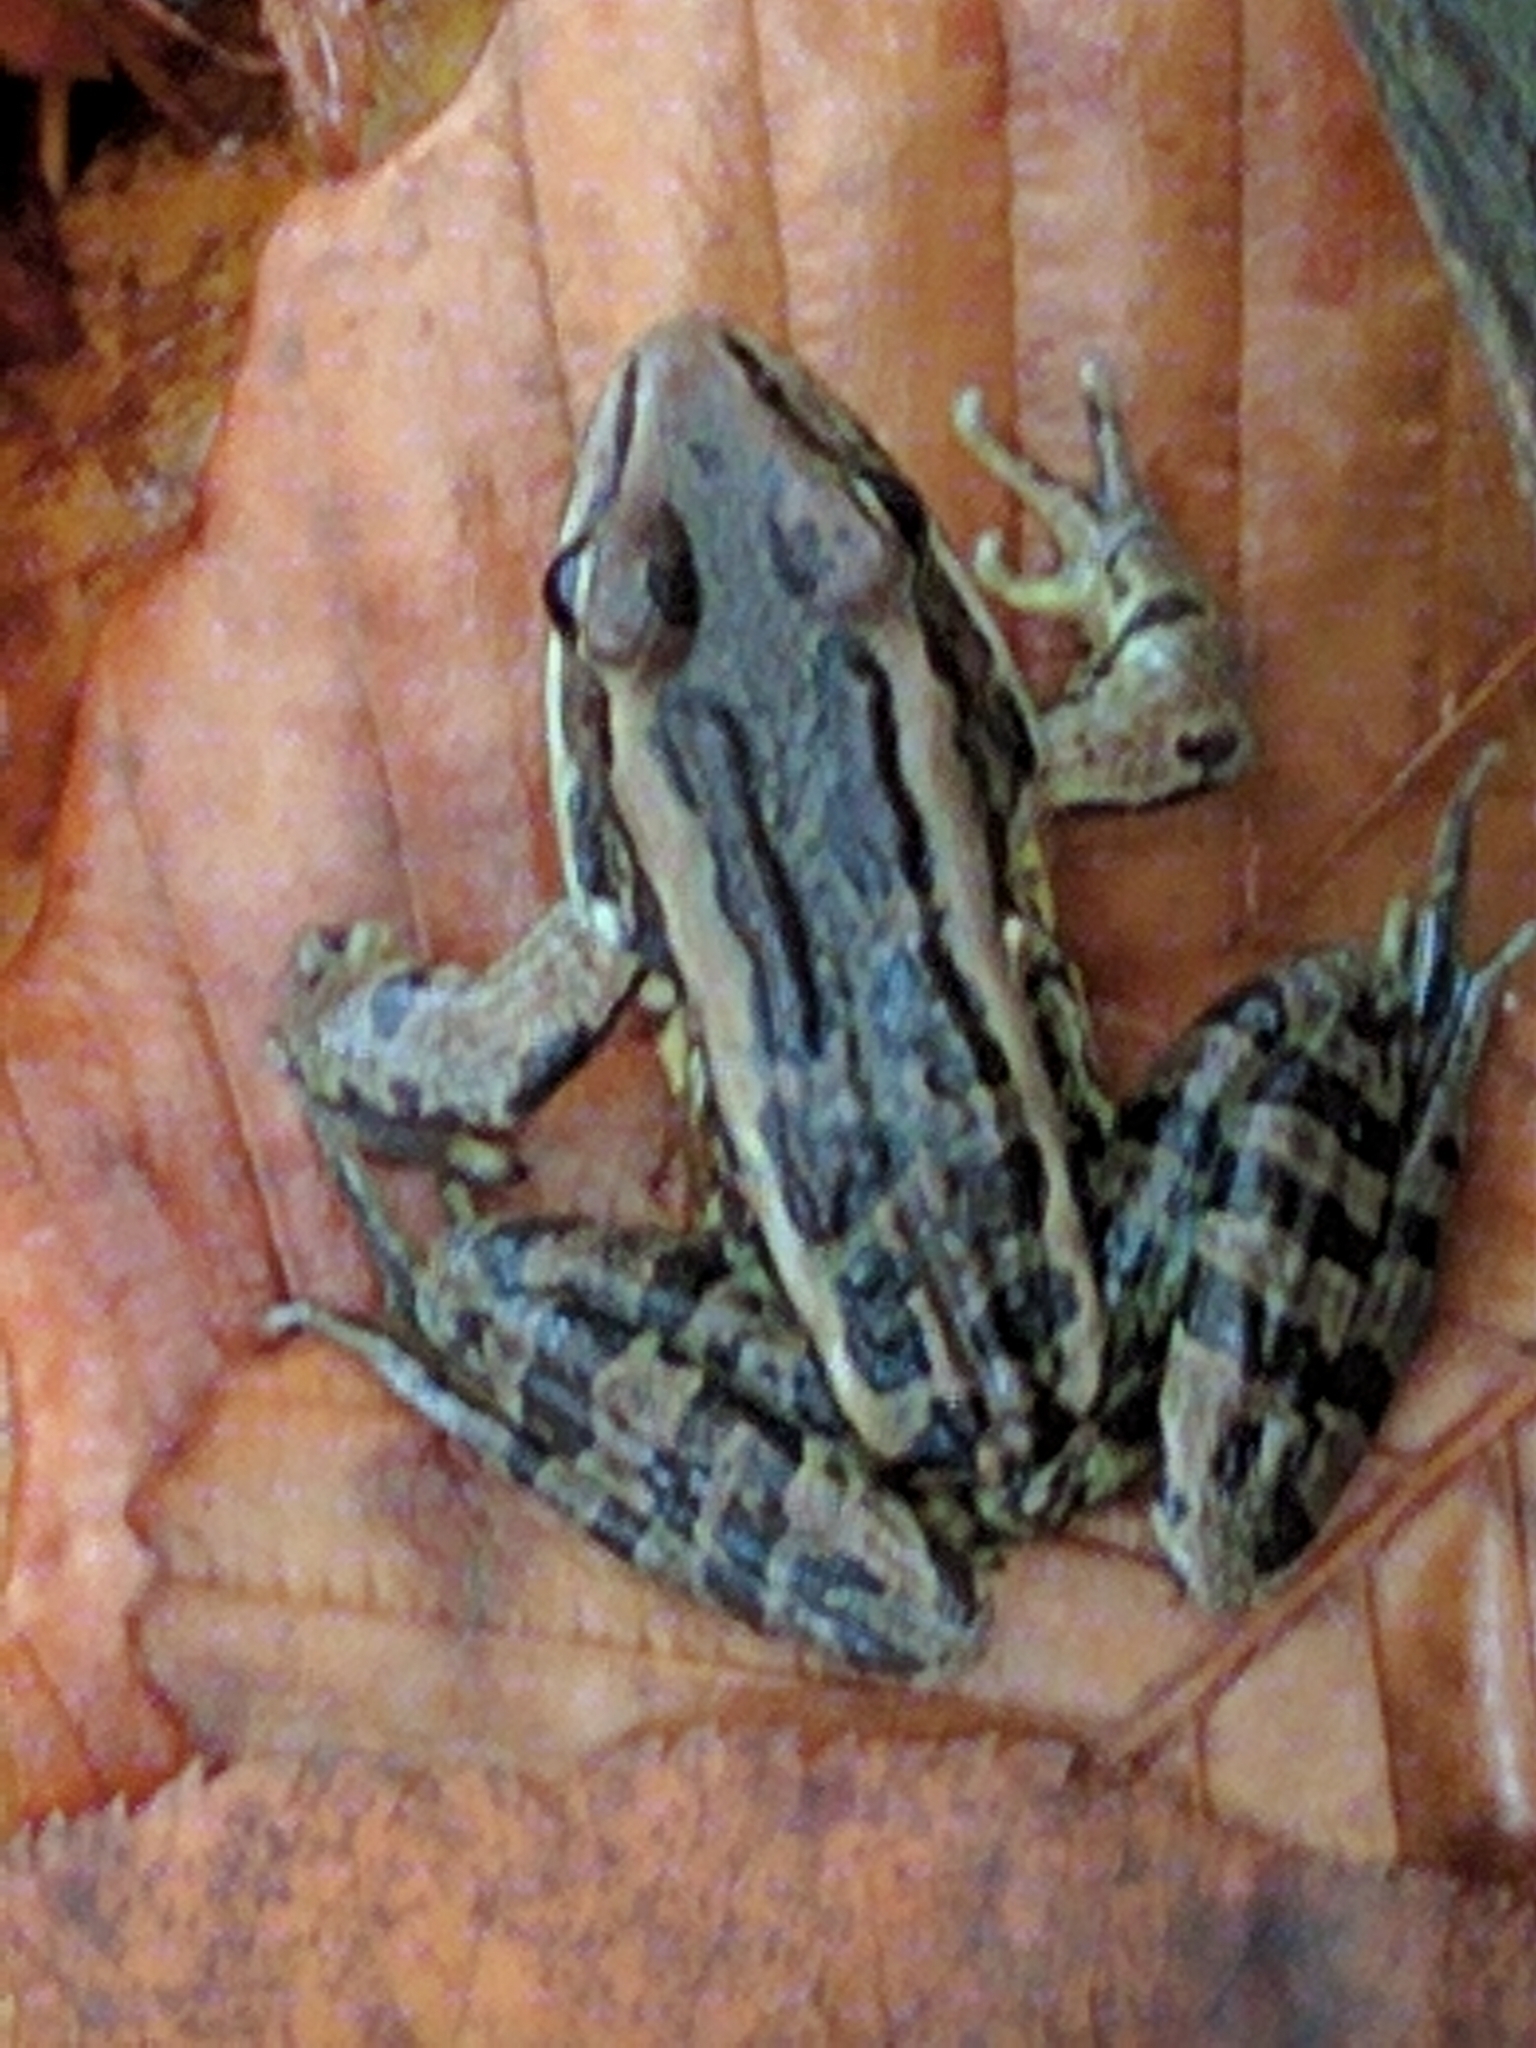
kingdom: Animalia
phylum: Chordata
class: Amphibia
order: Anura
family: Ranidae
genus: Lithobates
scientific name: Lithobates palustris
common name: Pickerel frog
